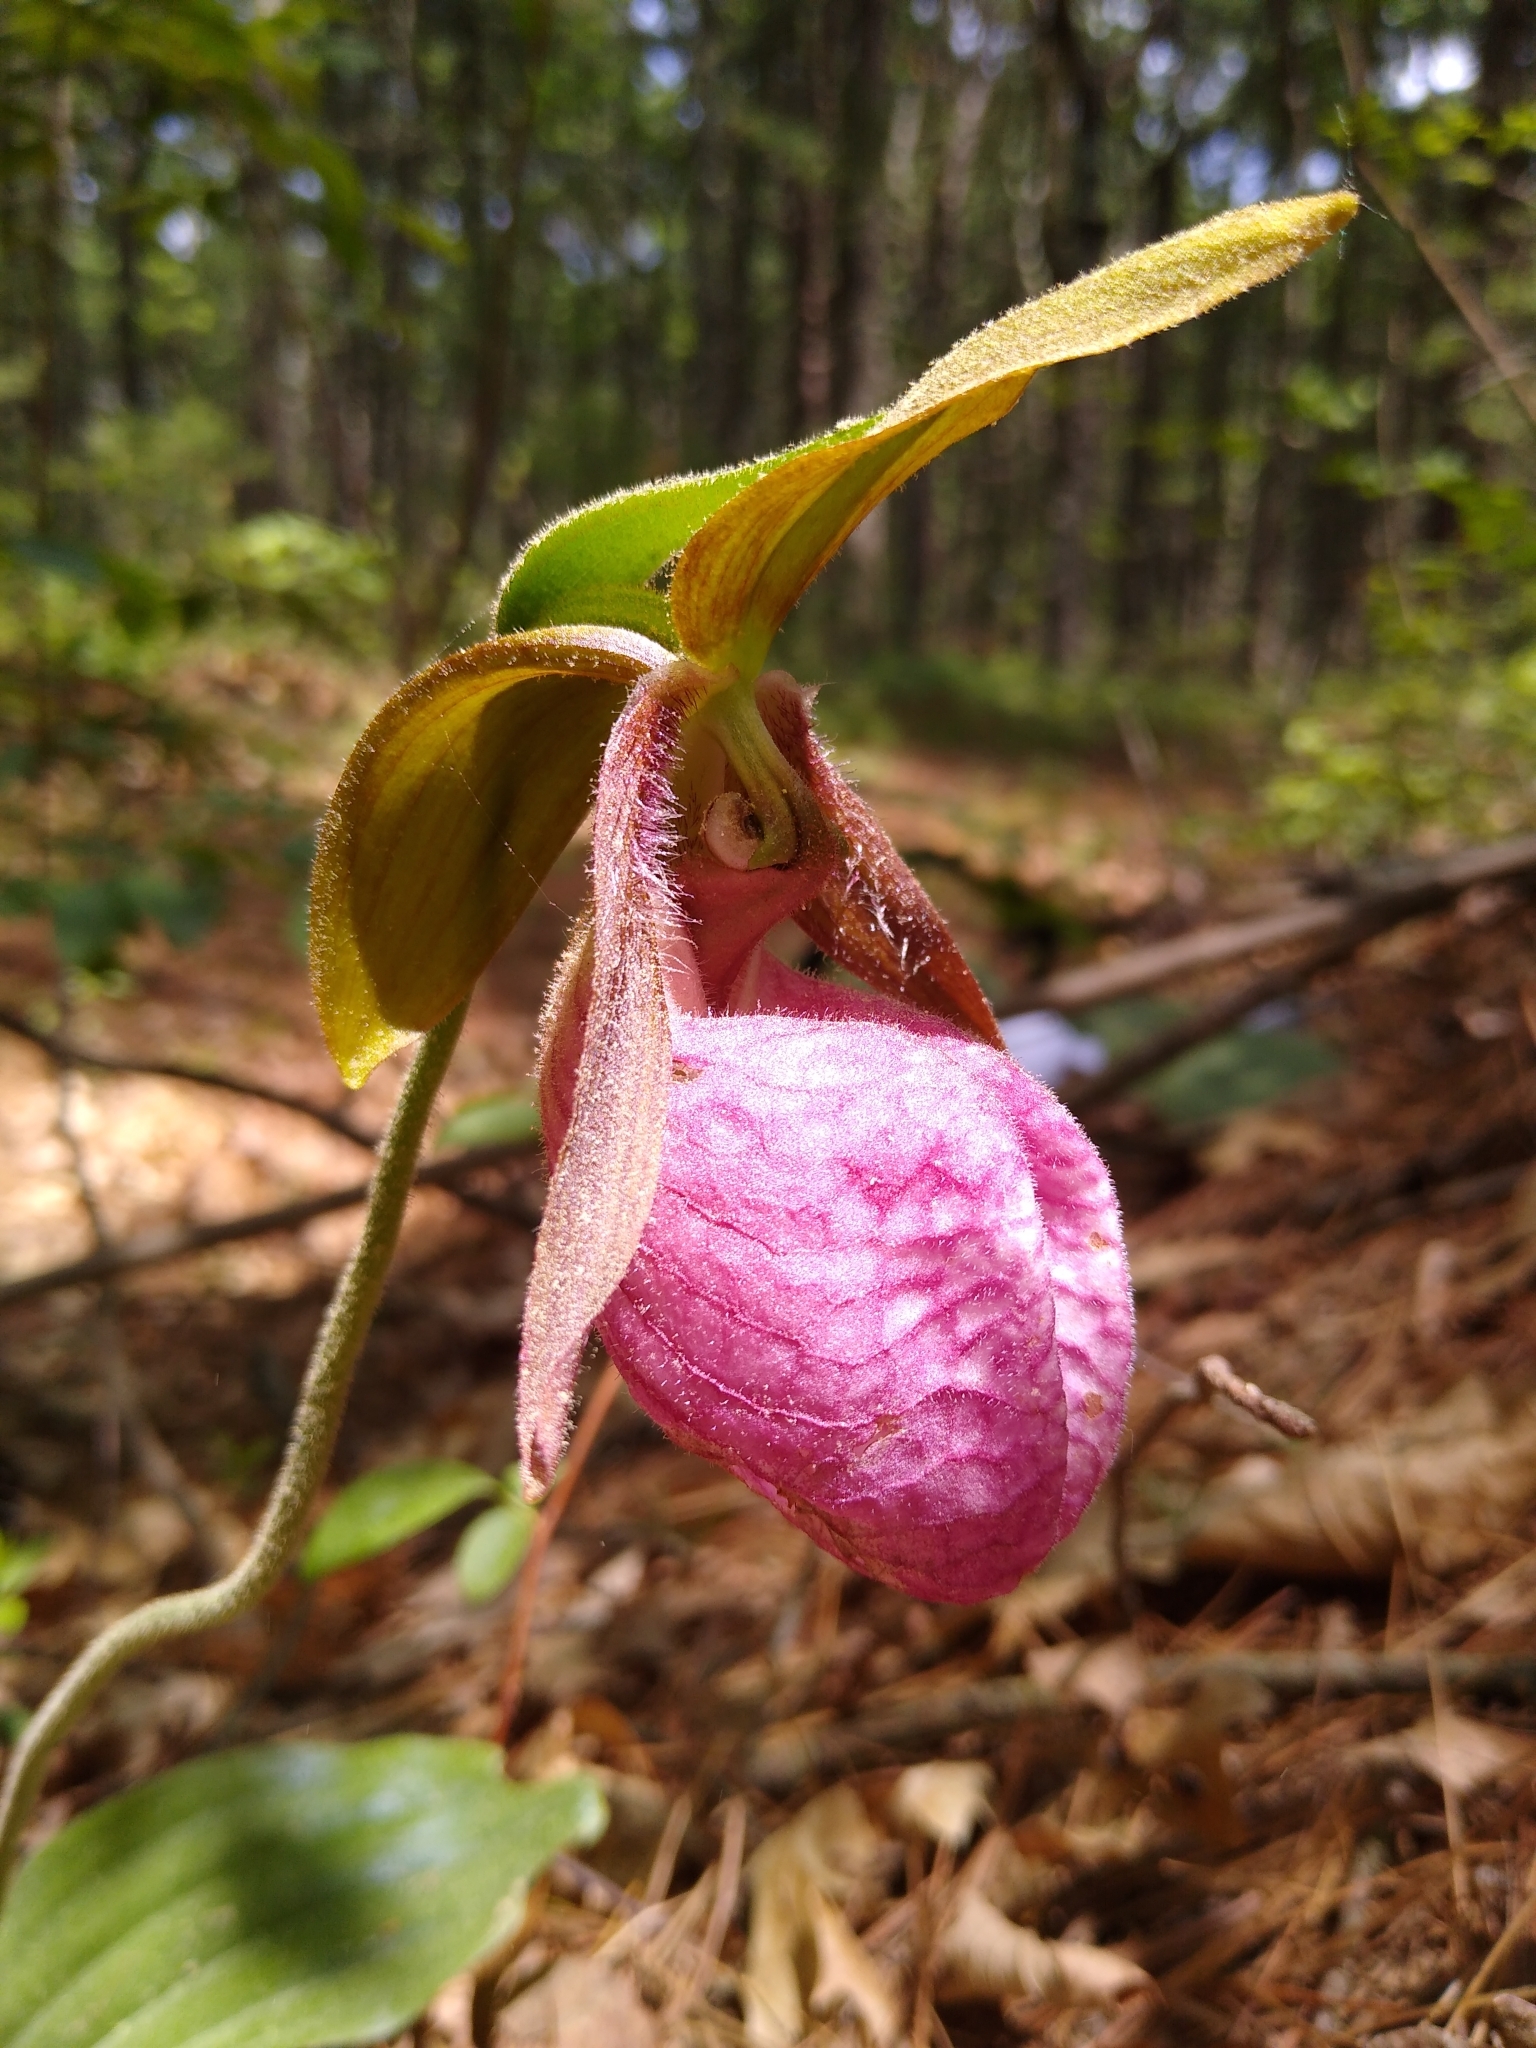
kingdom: Plantae
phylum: Tracheophyta
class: Liliopsida
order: Asparagales
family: Orchidaceae
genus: Cypripedium
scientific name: Cypripedium acaule
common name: Pink lady's-slipper
